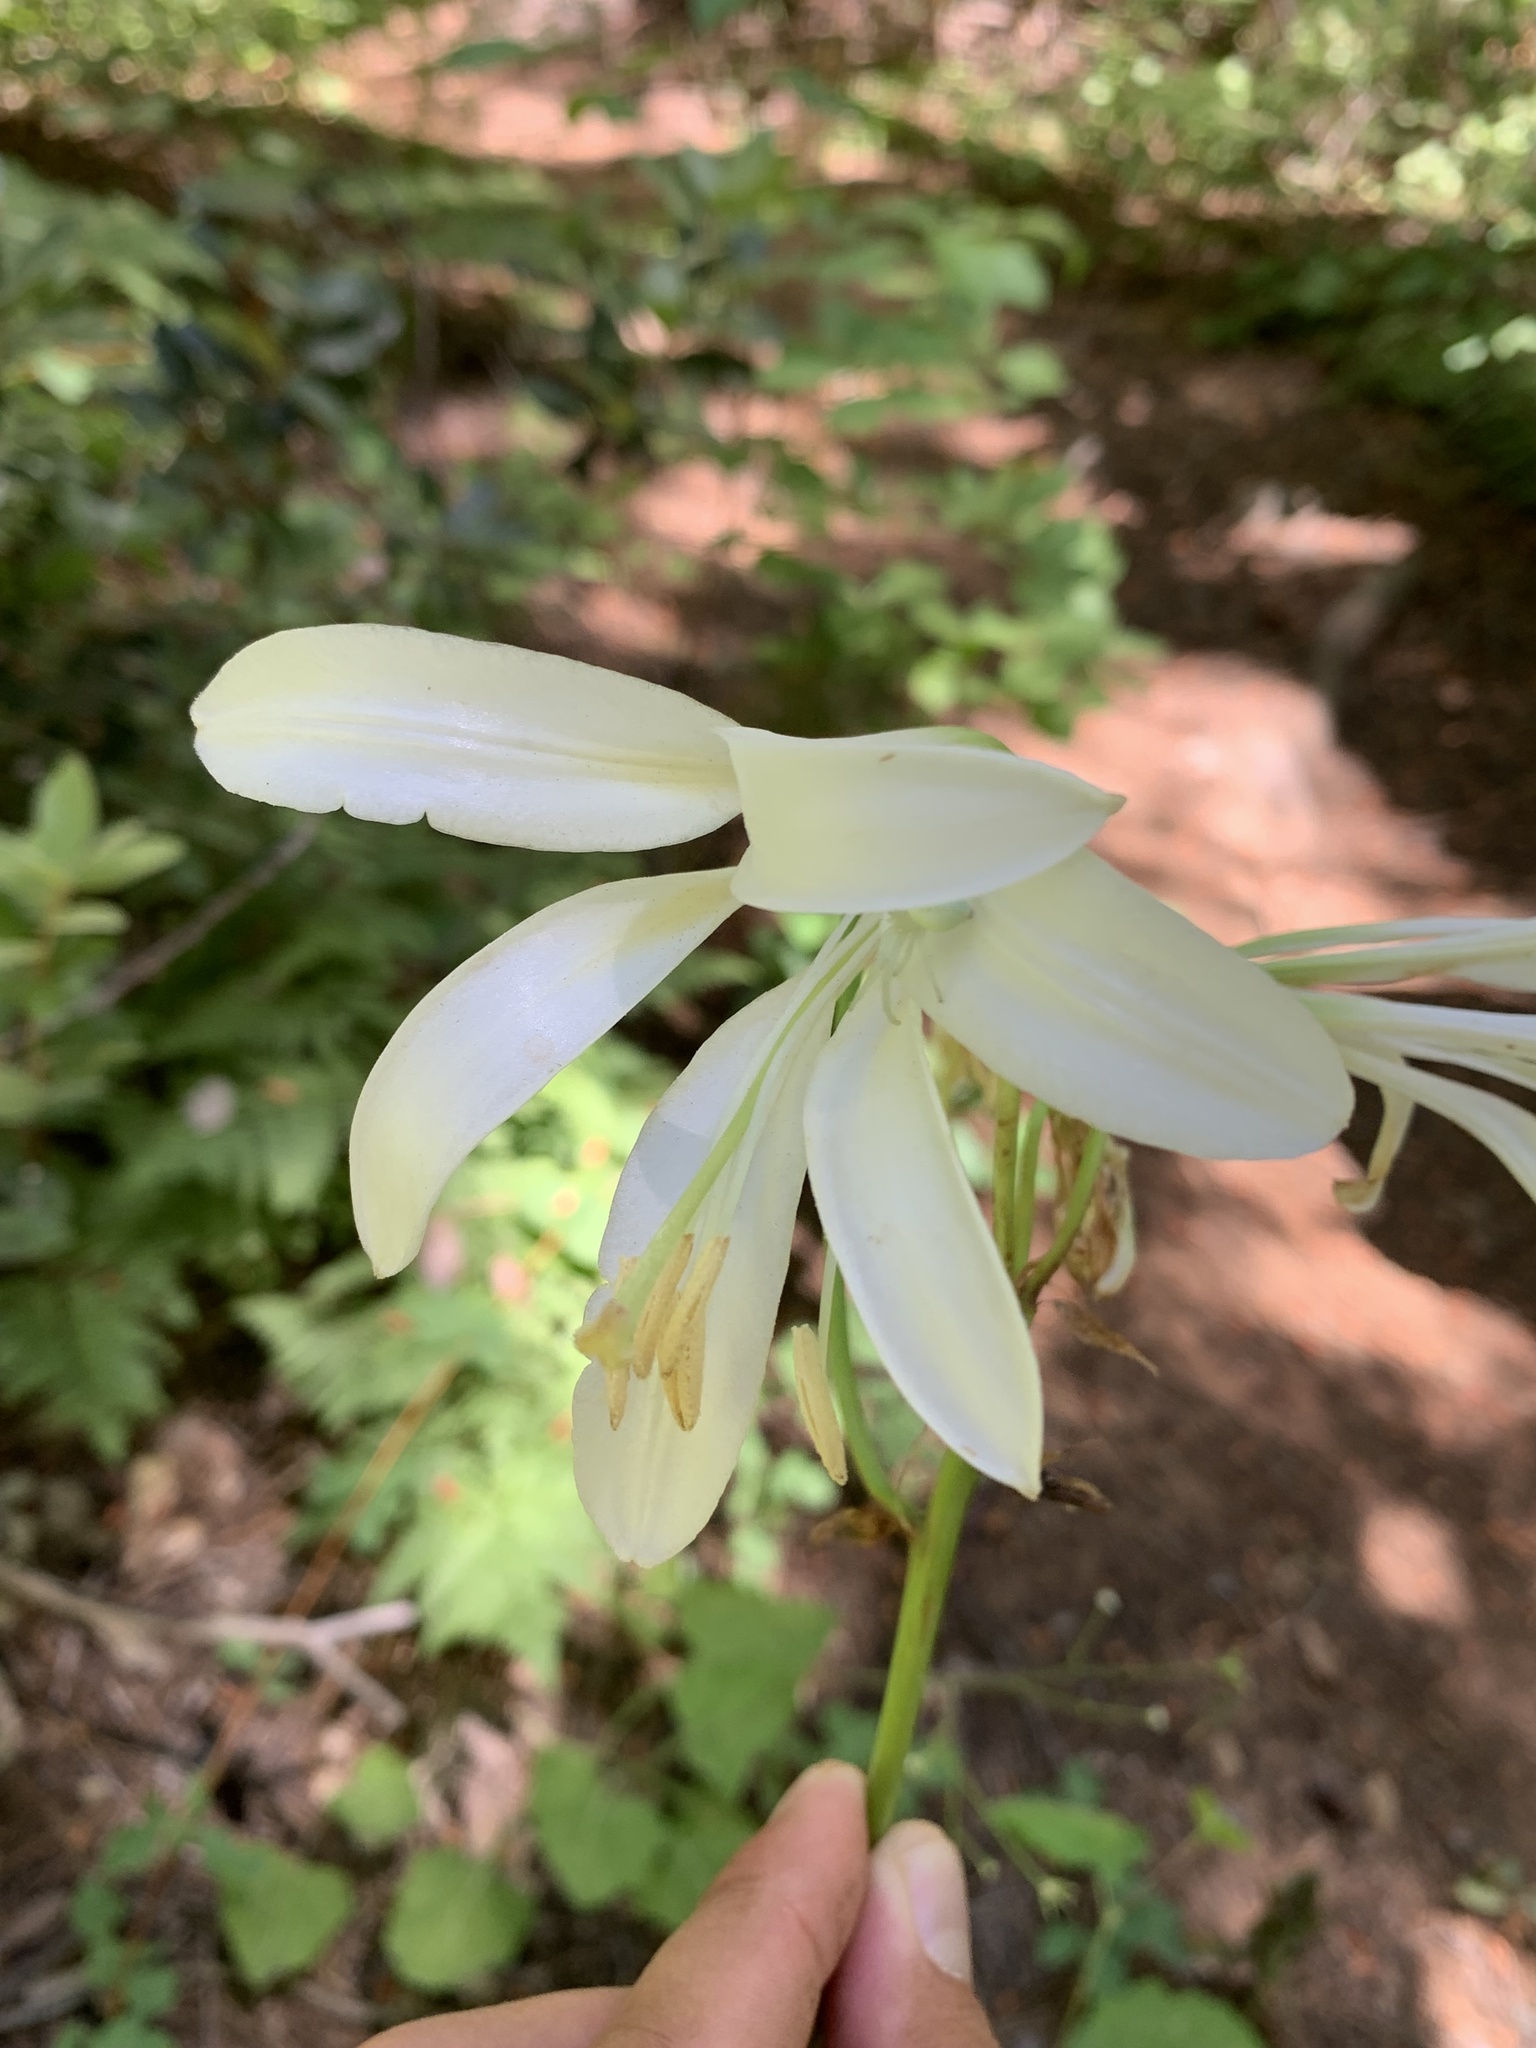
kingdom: Plantae
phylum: Tracheophyta
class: Liliopsida
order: Liliales
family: Liliaceae
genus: Lilium
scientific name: Lilium washingtonianum
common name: Washington lily
